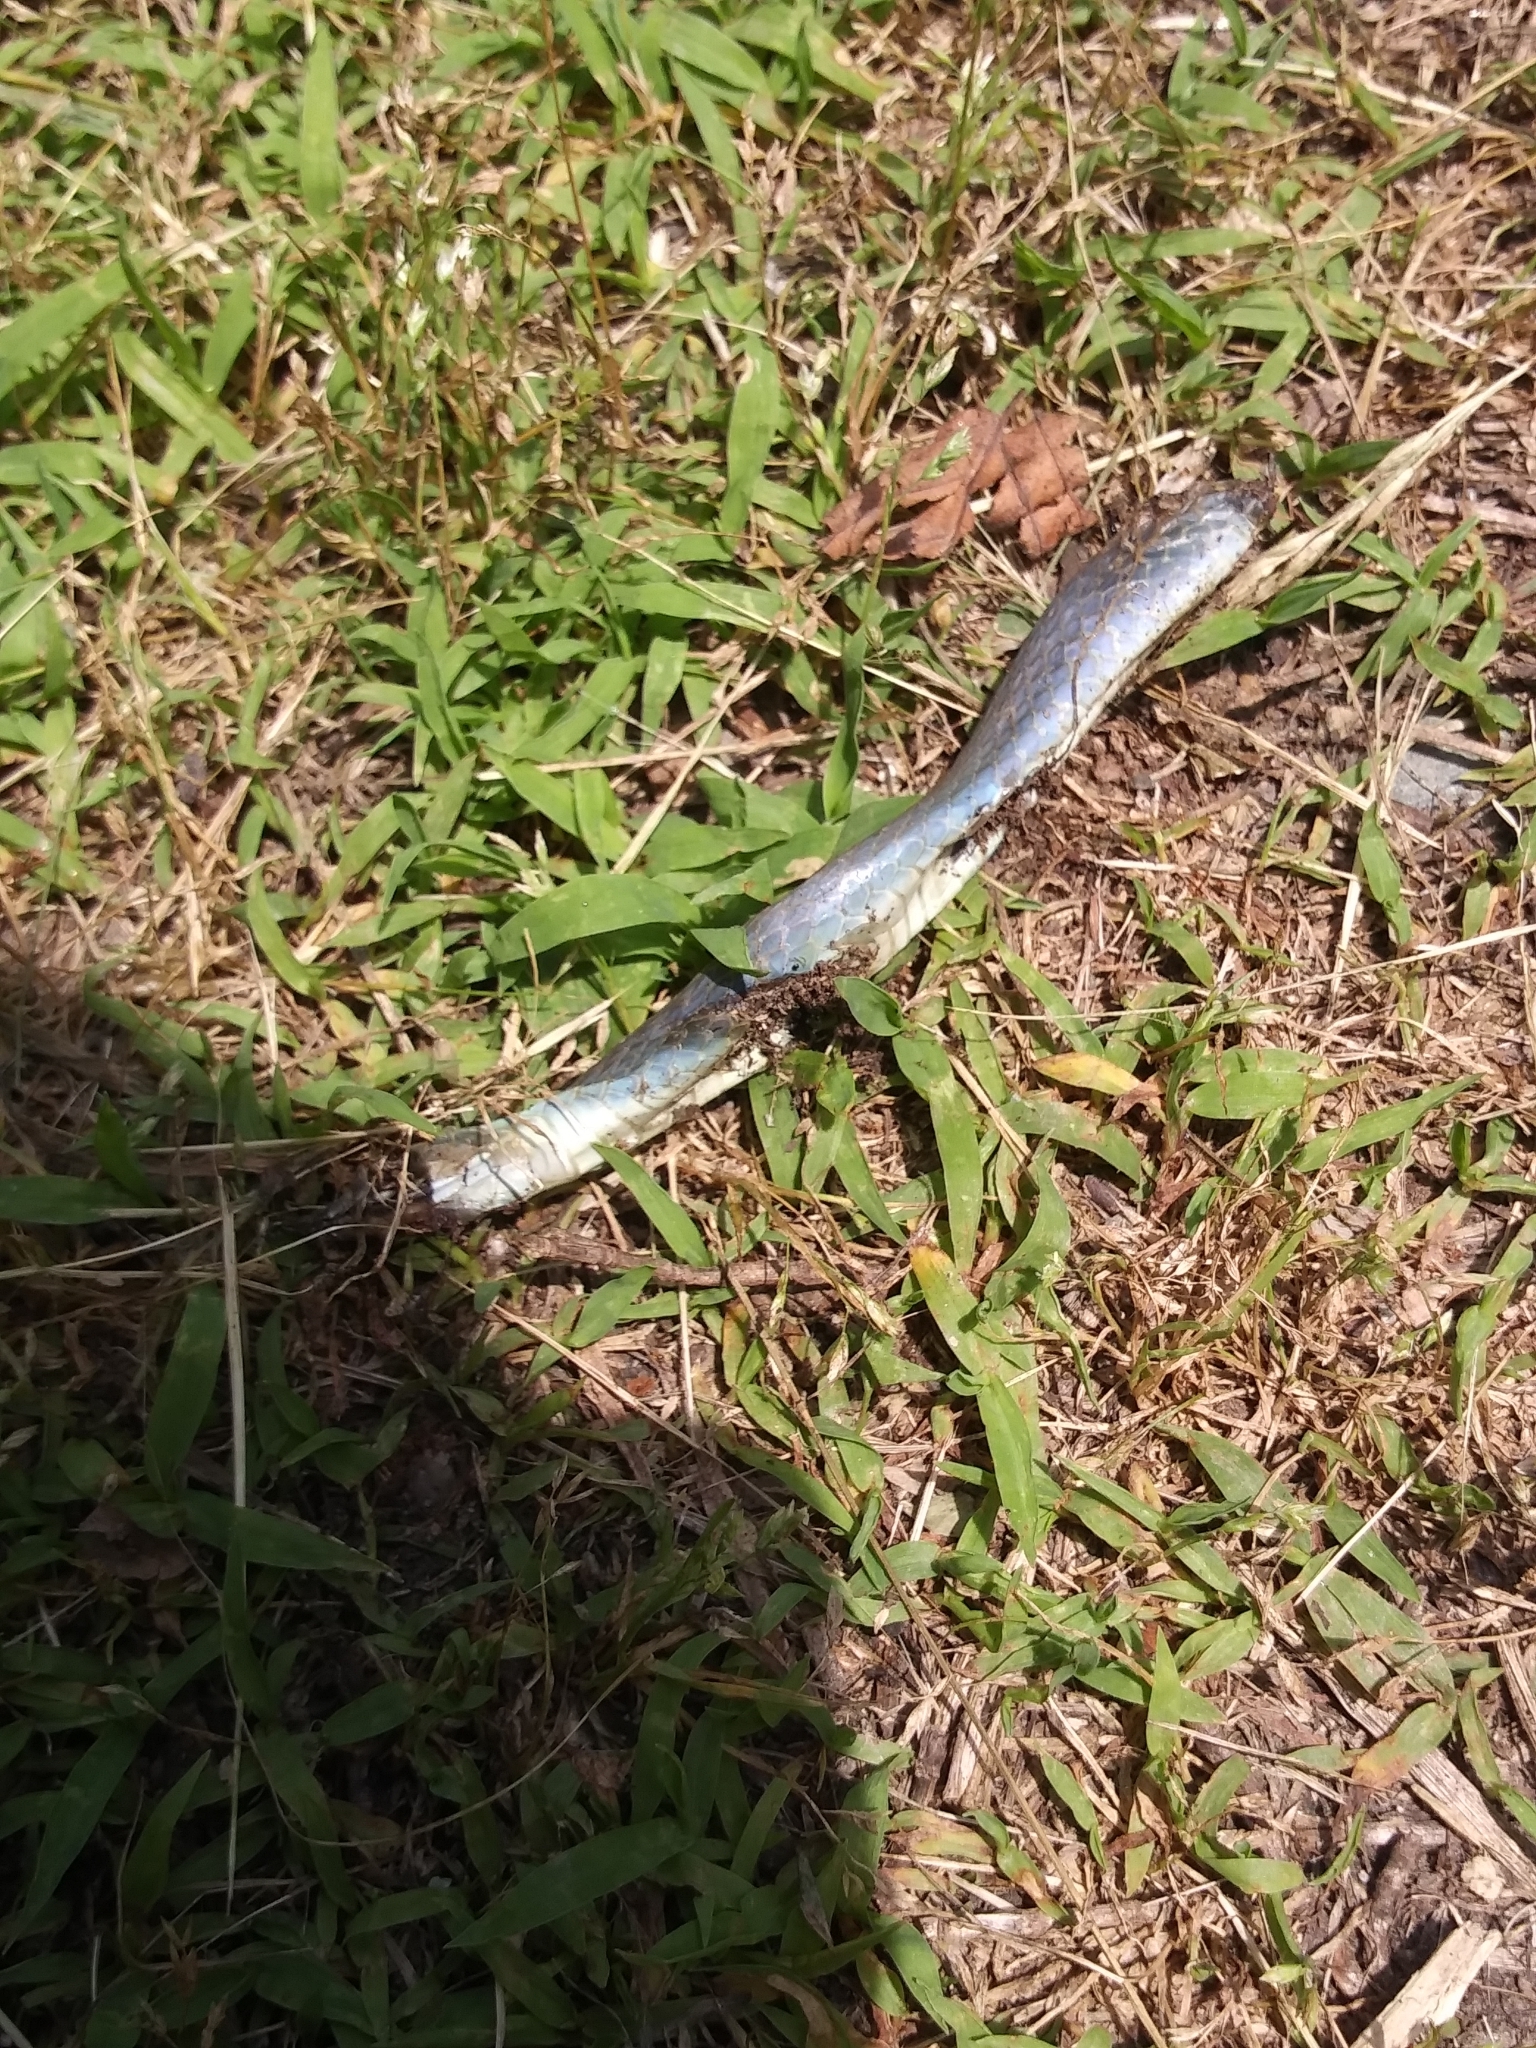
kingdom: Animalia
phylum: Chordata
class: Squamata
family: Colubridae
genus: Opheodrys
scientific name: Opheodrys aestivus
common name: Rough greensnake
